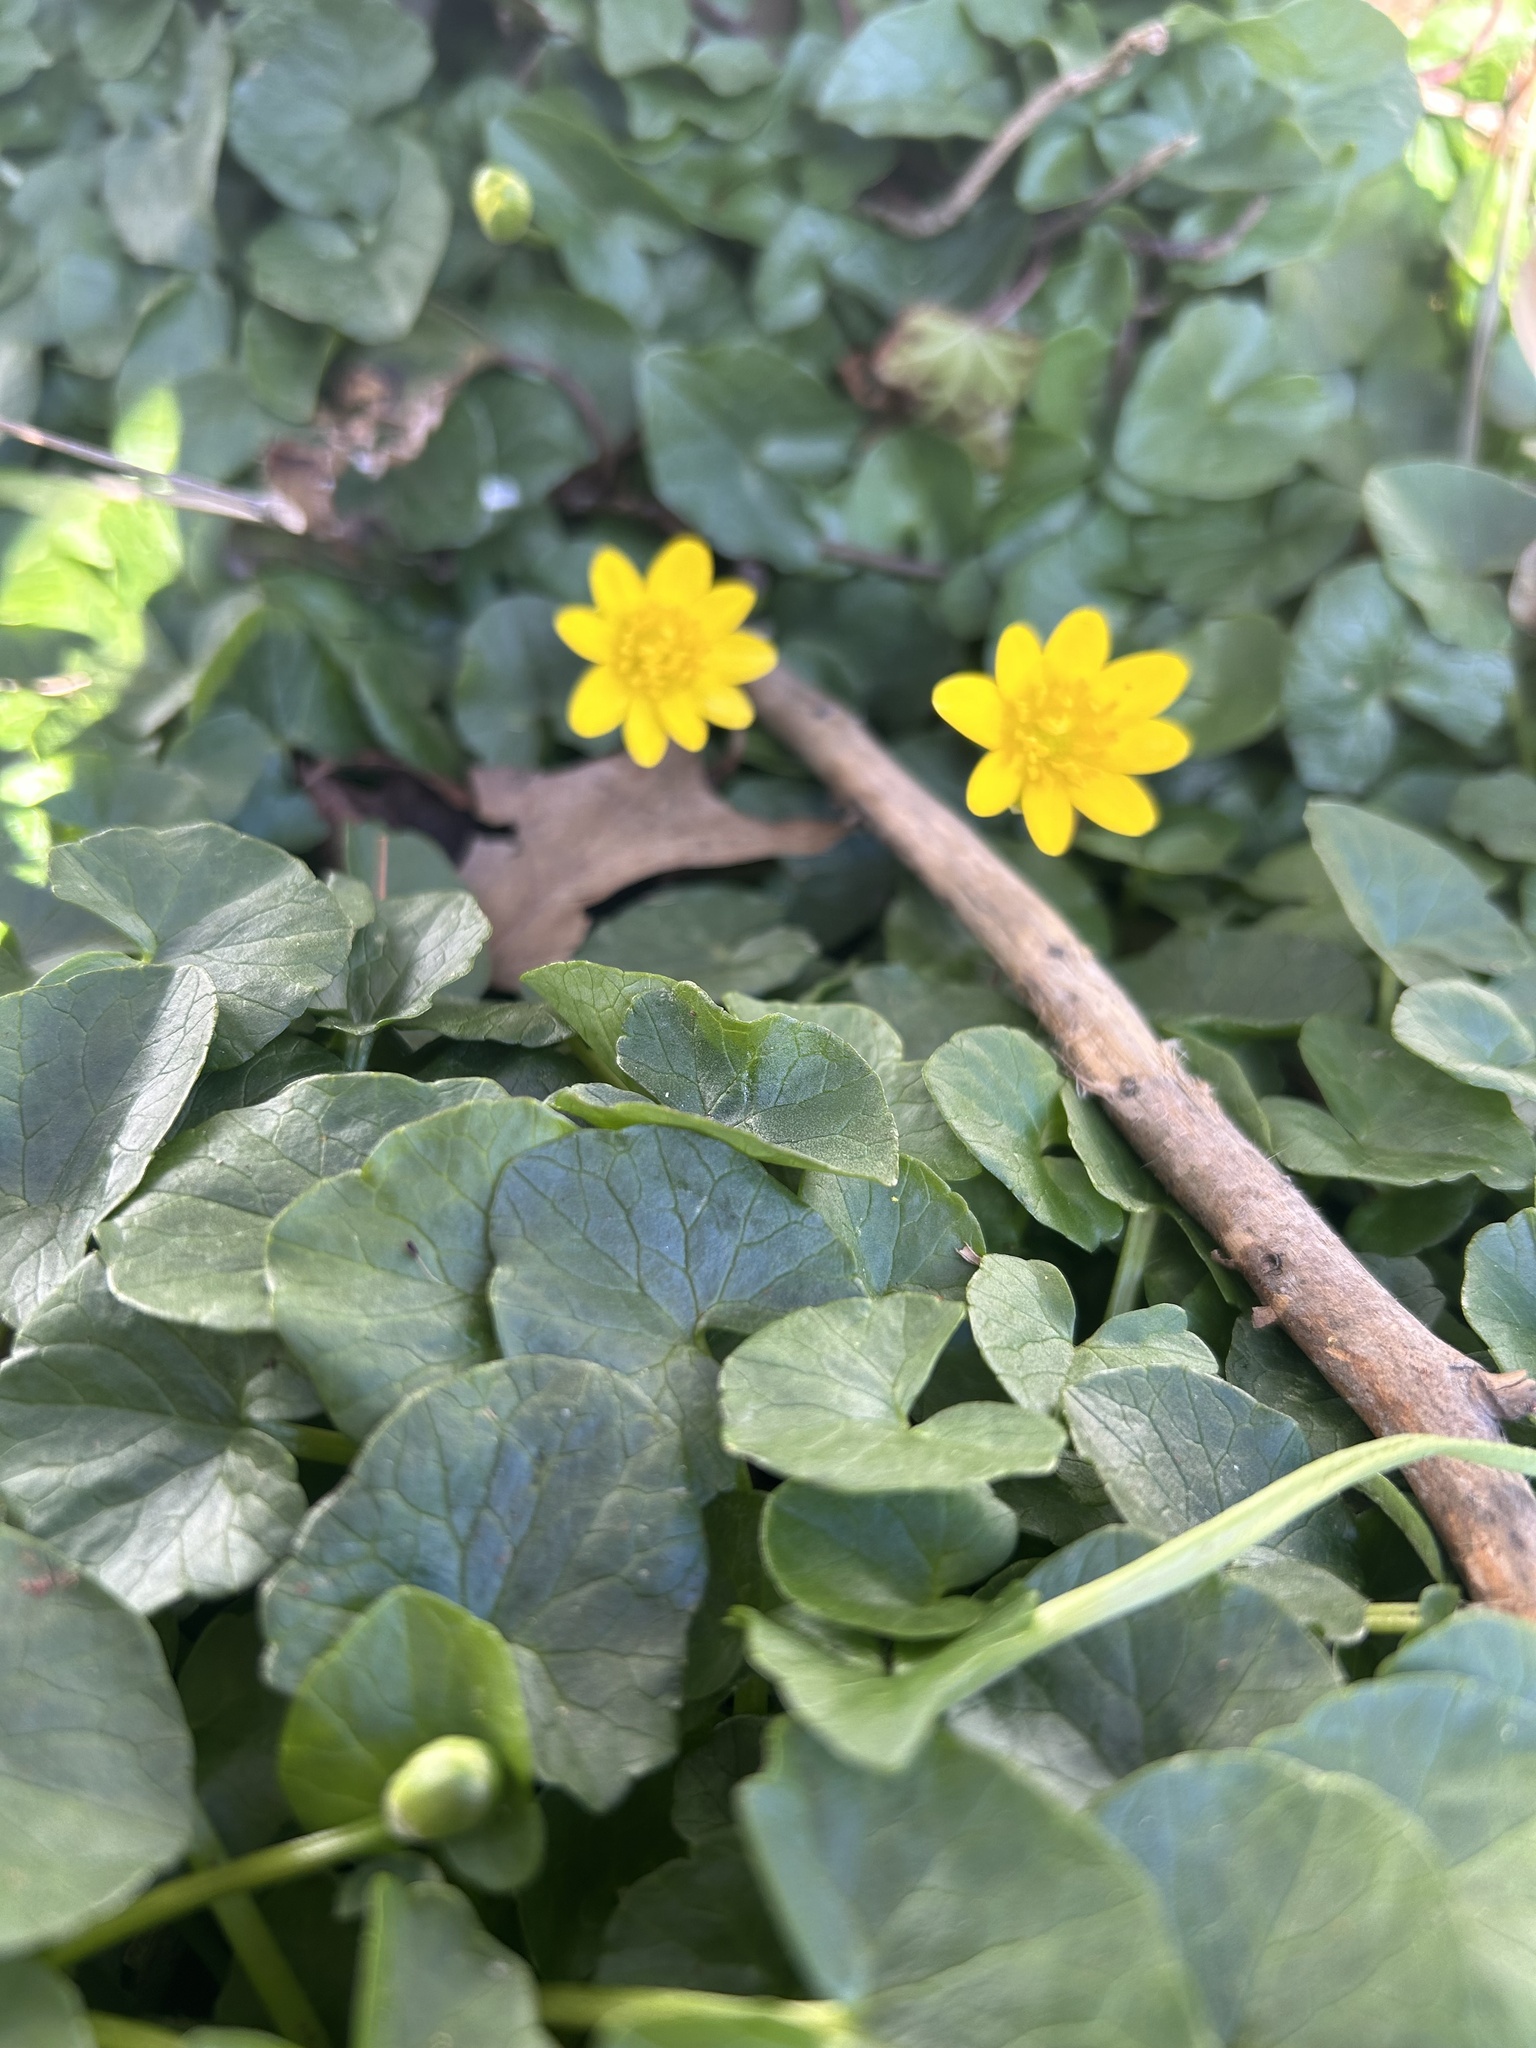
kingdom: Plantae
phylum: Tracheophyta
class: Magnoliopsida
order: Ranunculales
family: Ranunculaceae
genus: Ficaria
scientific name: Ficaria verna
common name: Lesser celandine
